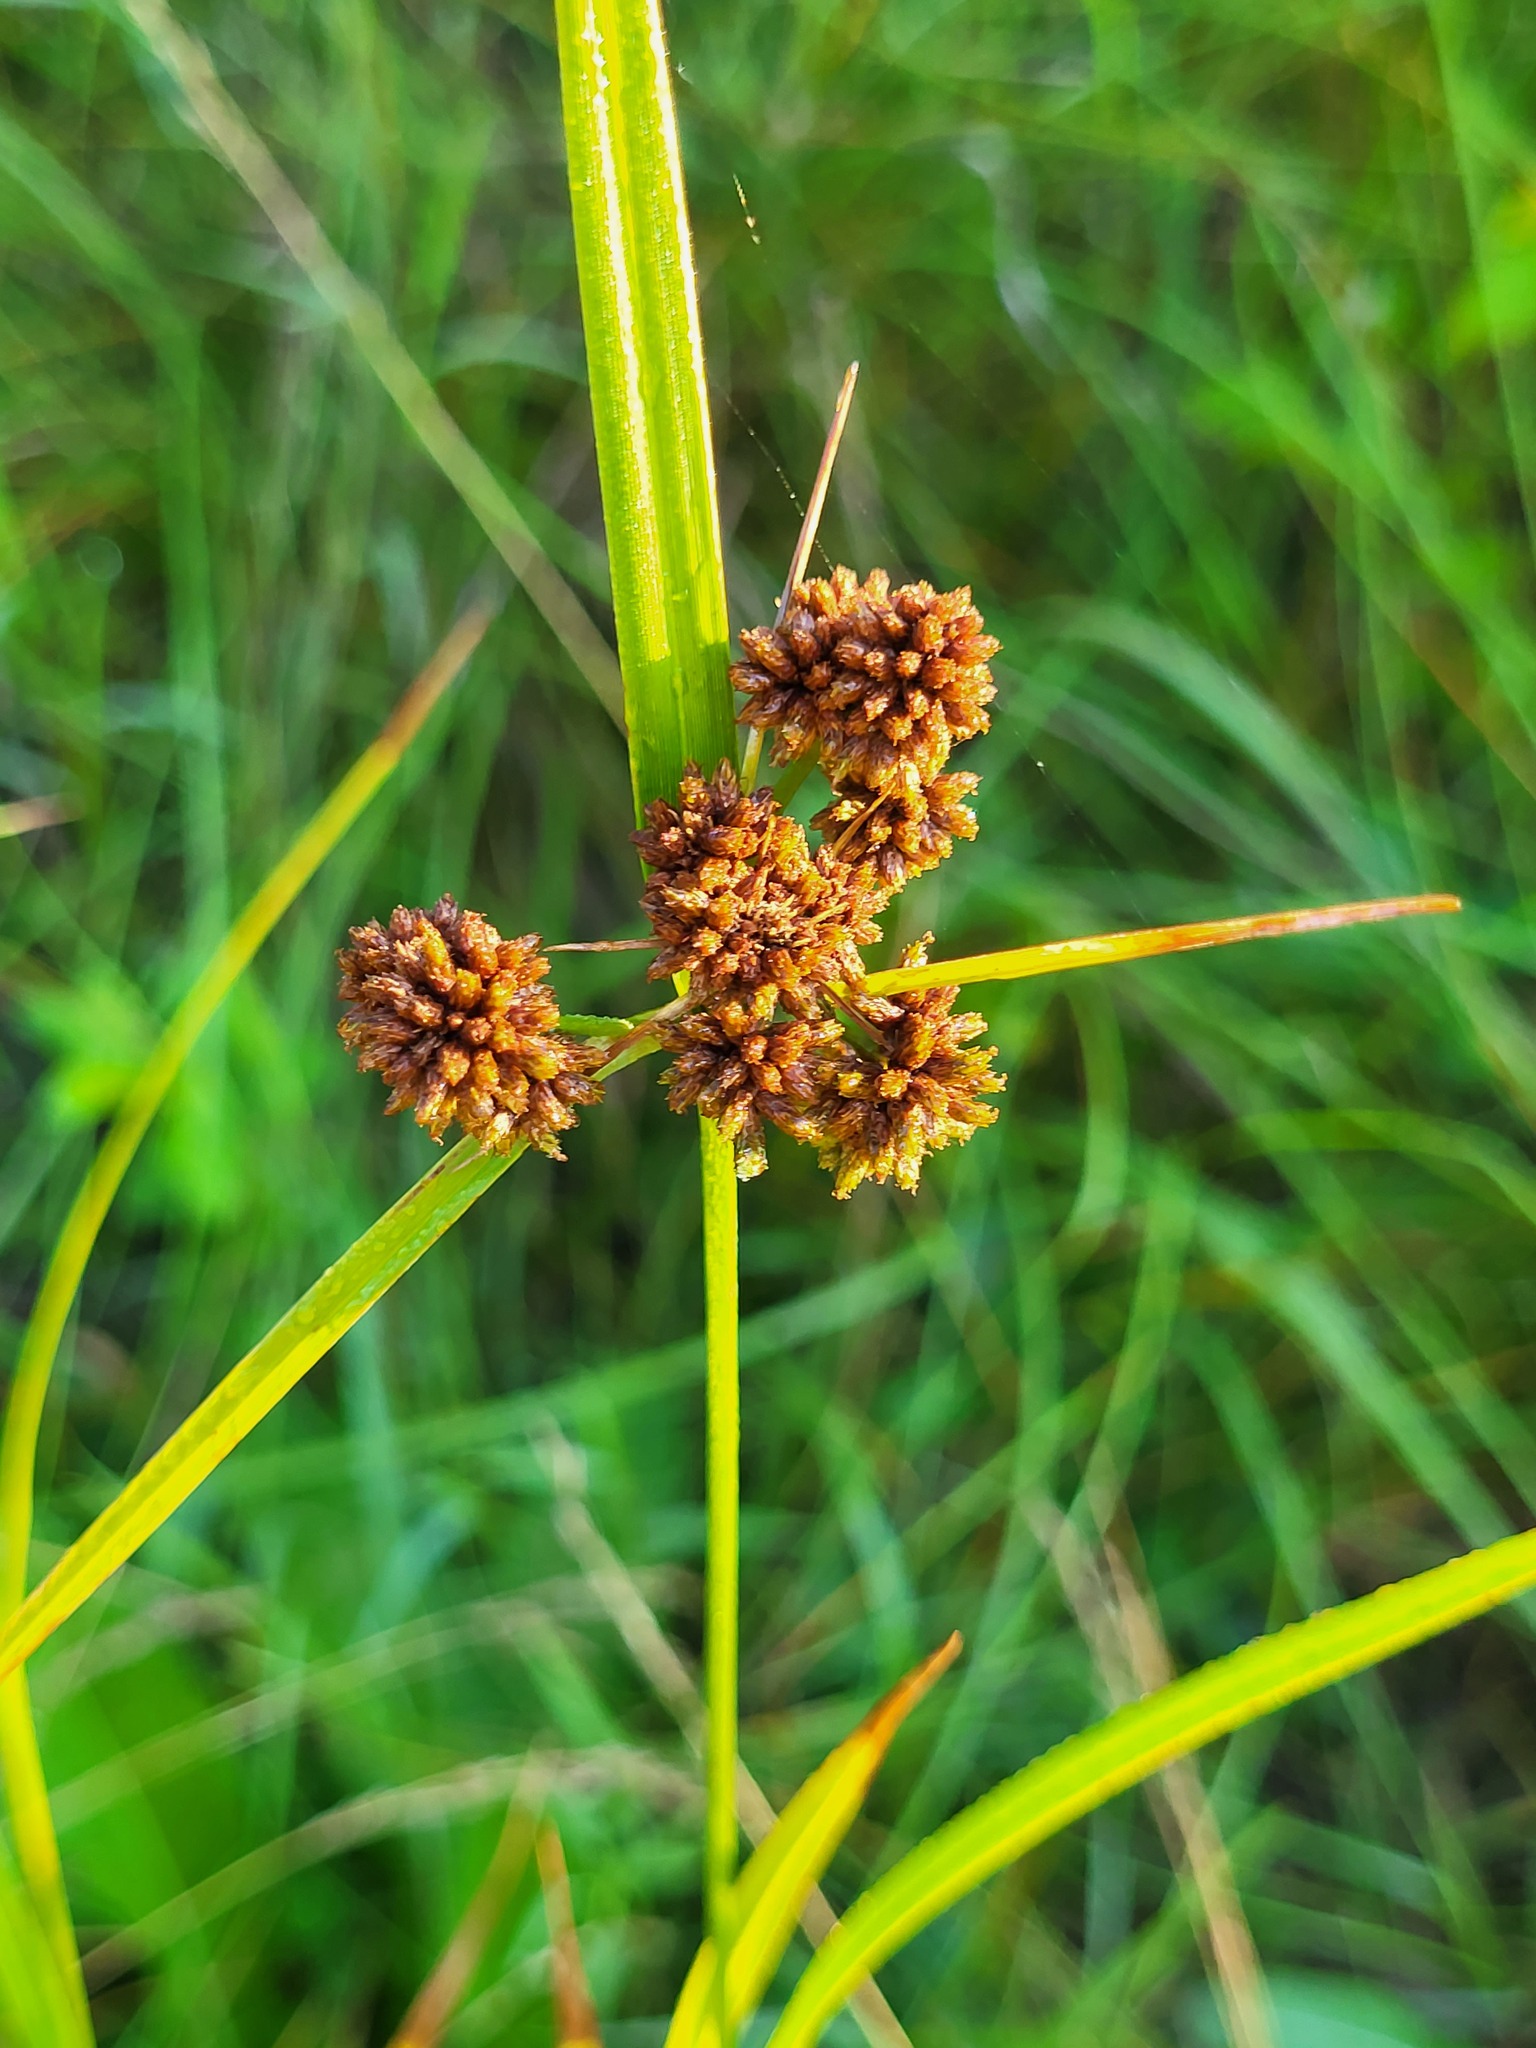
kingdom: Plantae
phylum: Tracheophyta
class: Liliopsida
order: Poales
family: Cyperaceae
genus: Scirpus
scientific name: Scirpus atrovirens
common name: Black bulrush
